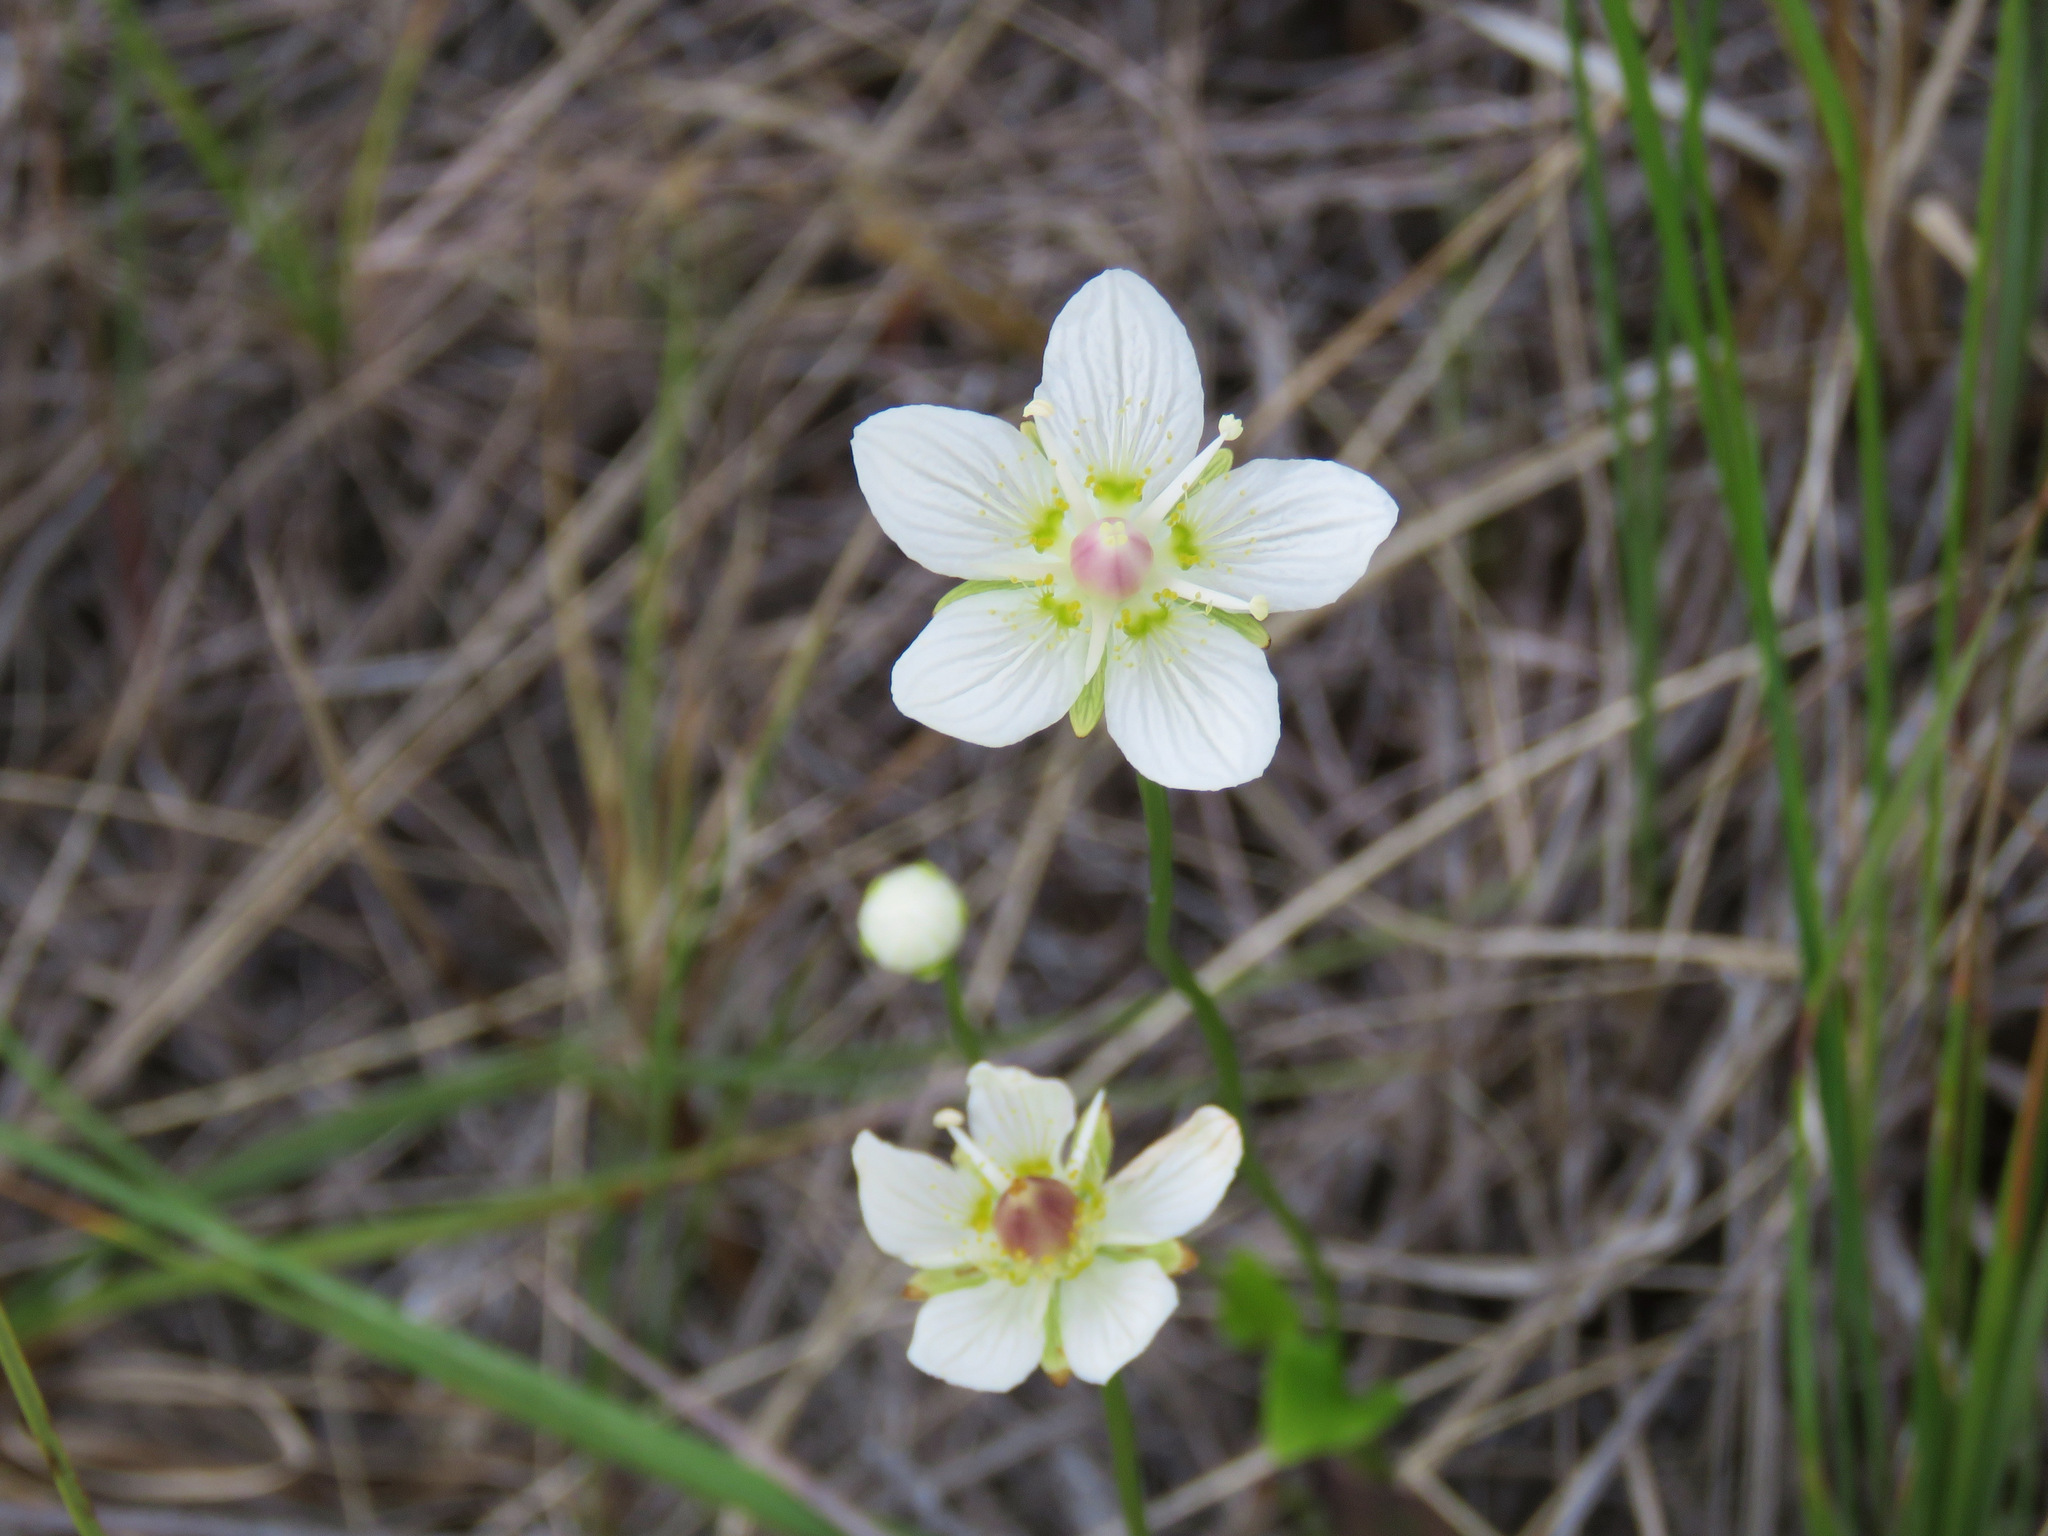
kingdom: Plantae
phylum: Tracheophyta
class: Magnoliopsida
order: Celastrales
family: Parnassiaceae
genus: Parnassia
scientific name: Parnassia palustris
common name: Grass-of-parnassus
